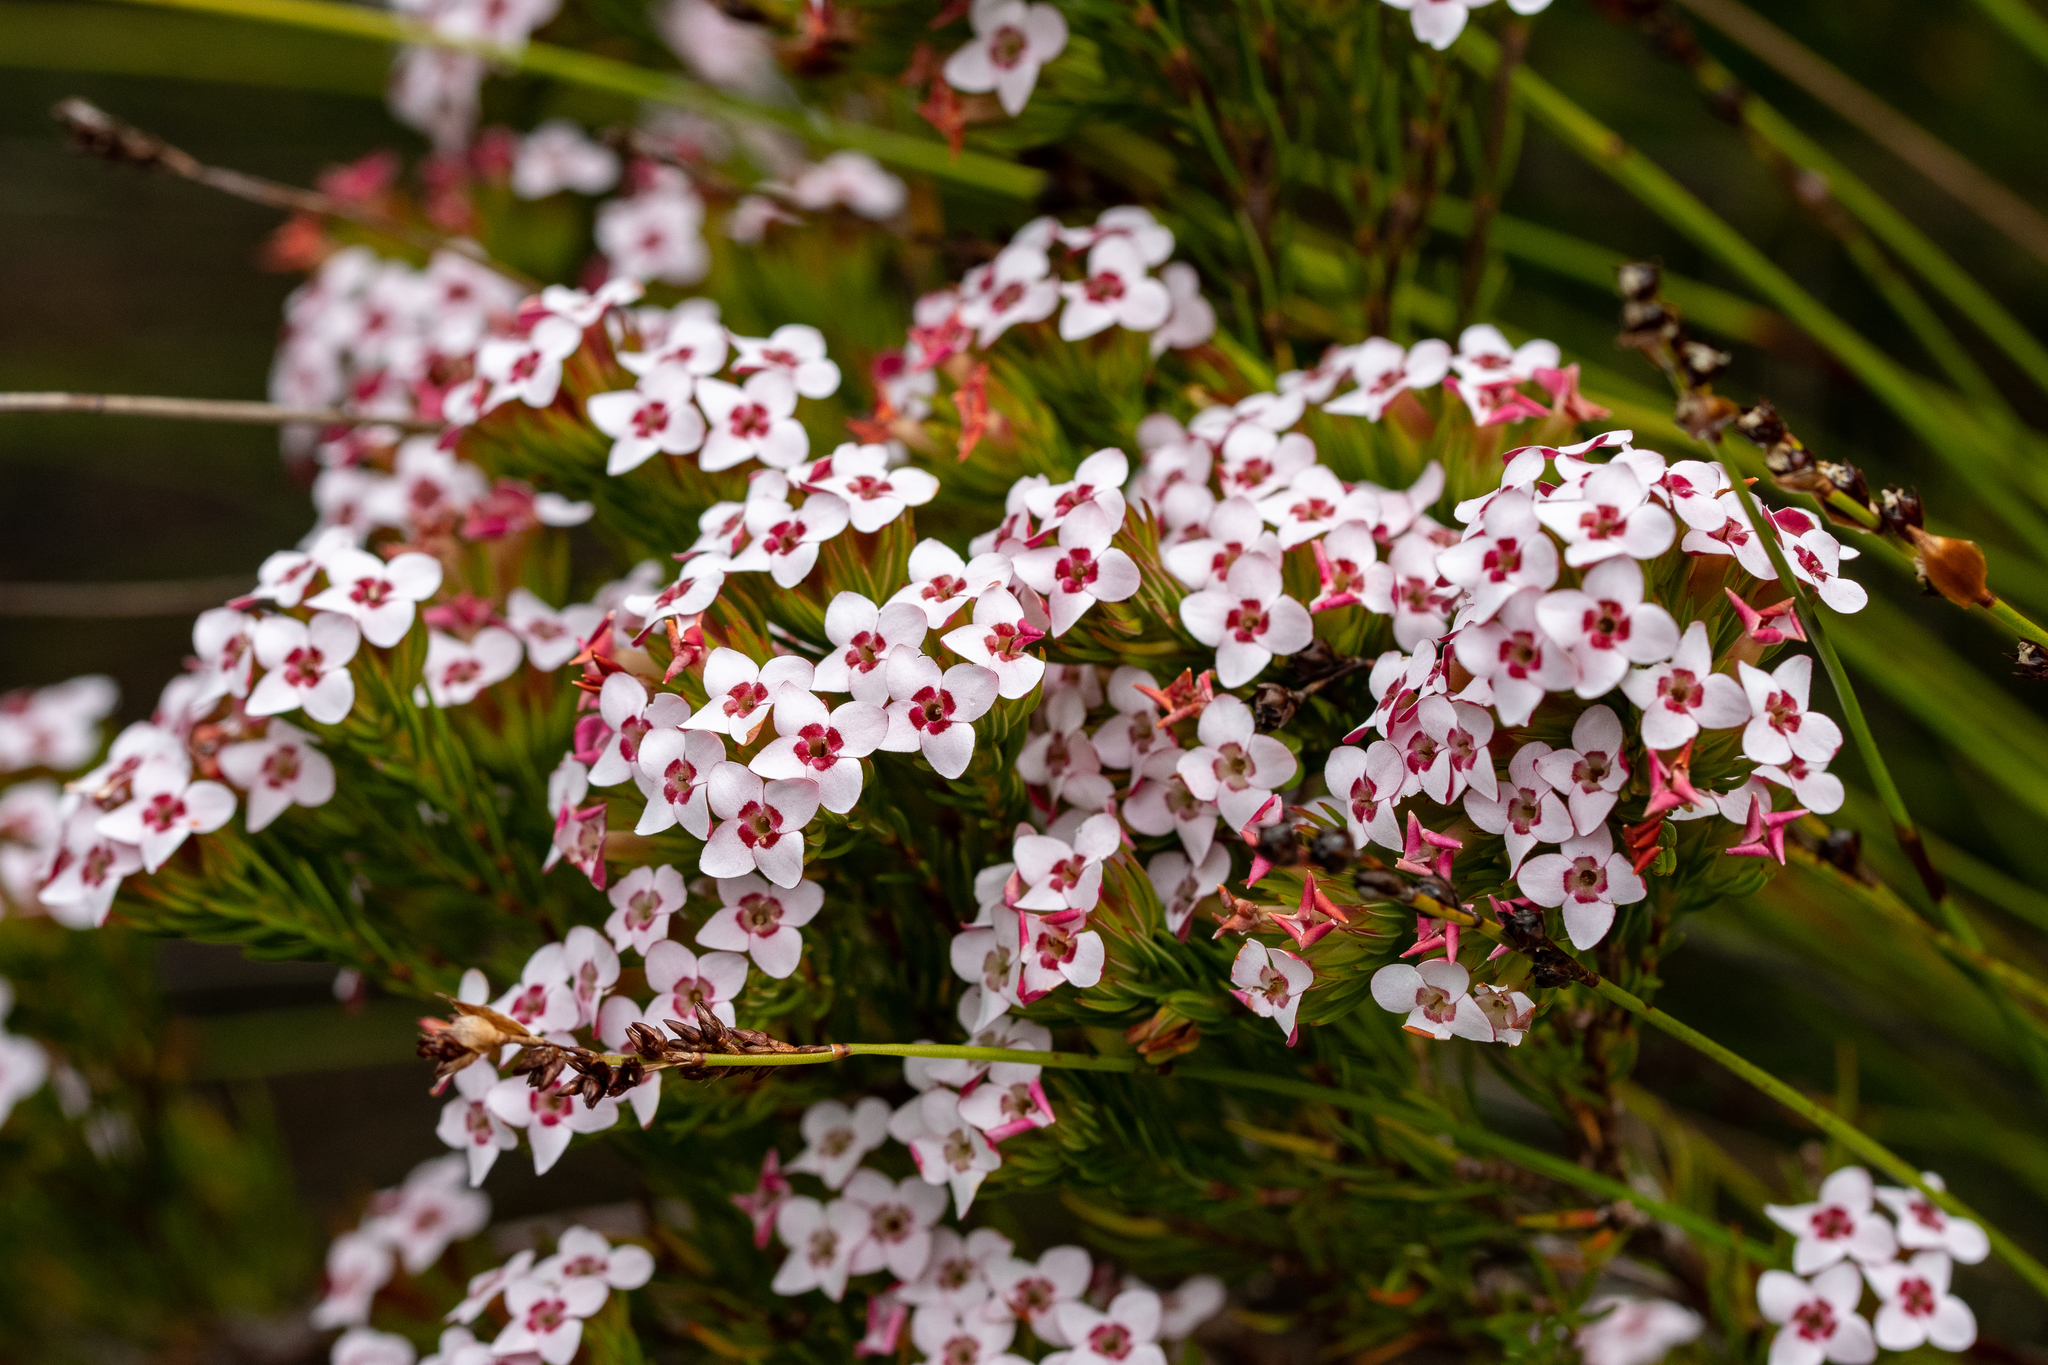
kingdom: Plantae
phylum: Tracheophyta
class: Magnoliopsida
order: Ericales
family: Ericaceae
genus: Erica
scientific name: Erica fastigiata
